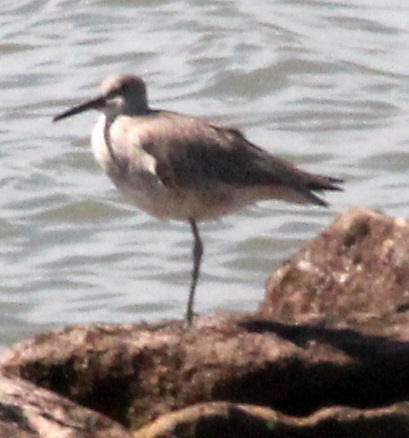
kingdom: Animalia
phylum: Chordata
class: Aves
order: Charadriiformes
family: Scolopacidae
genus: Tringa
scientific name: Tringa semipalmata
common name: Willet
